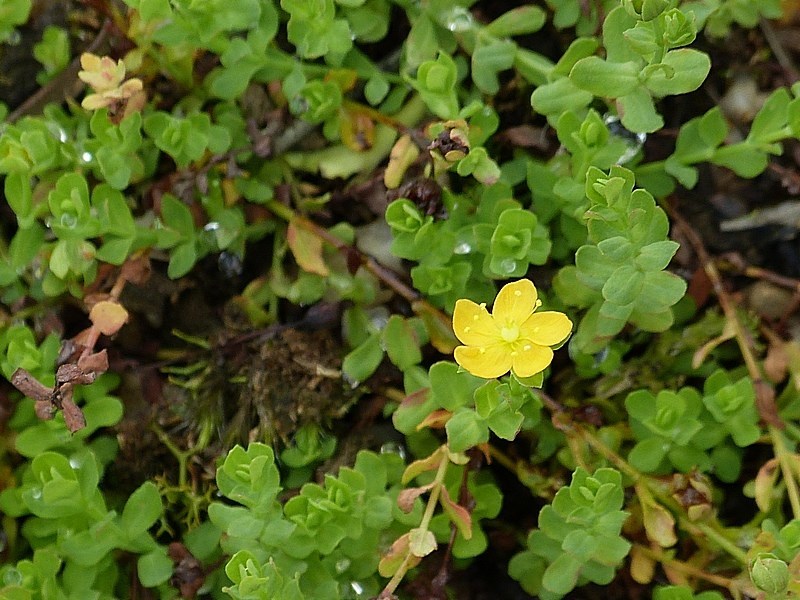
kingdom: Plantae
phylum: Tracheophyta
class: Magnoliopsida
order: Malpighiales
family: Hypericaceae
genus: Hypericum
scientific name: Hypericum japonicum
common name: Matted st. john's-wort
